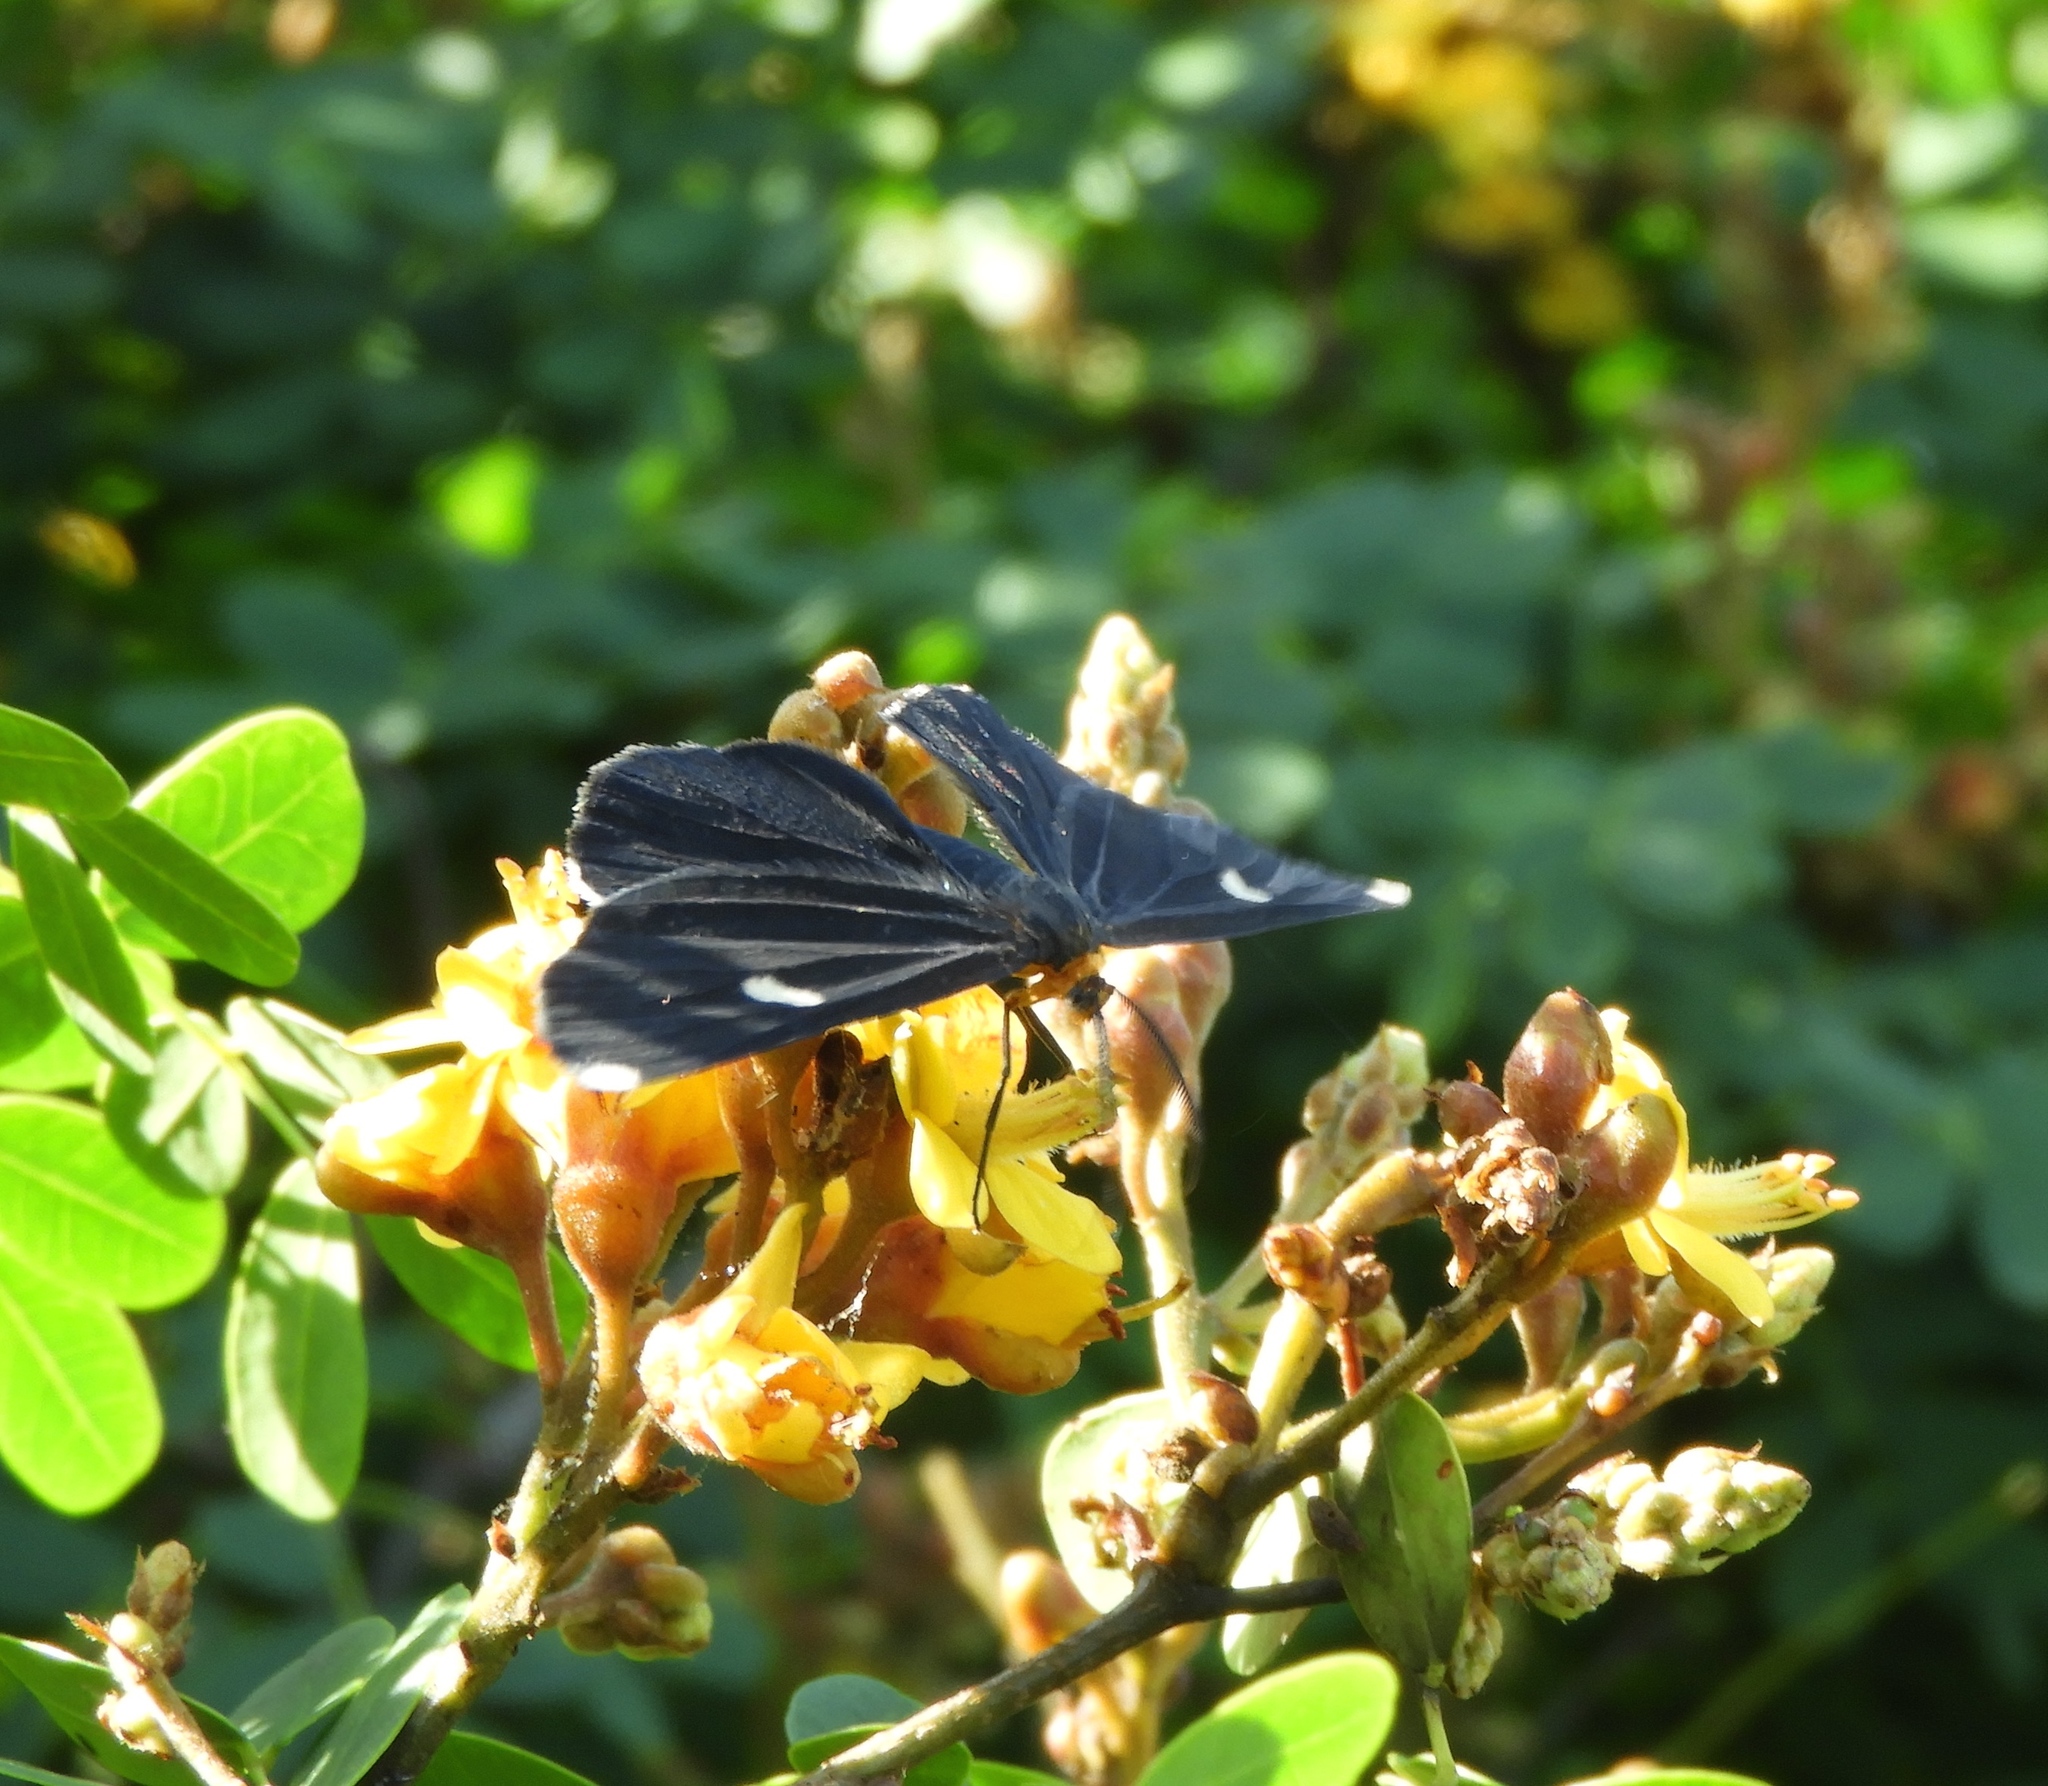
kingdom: Animalia
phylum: Arthropoda
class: Insecta
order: Lepidoptera
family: Geometridae
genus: Melanchroia
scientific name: Melanchroia vazquezae
